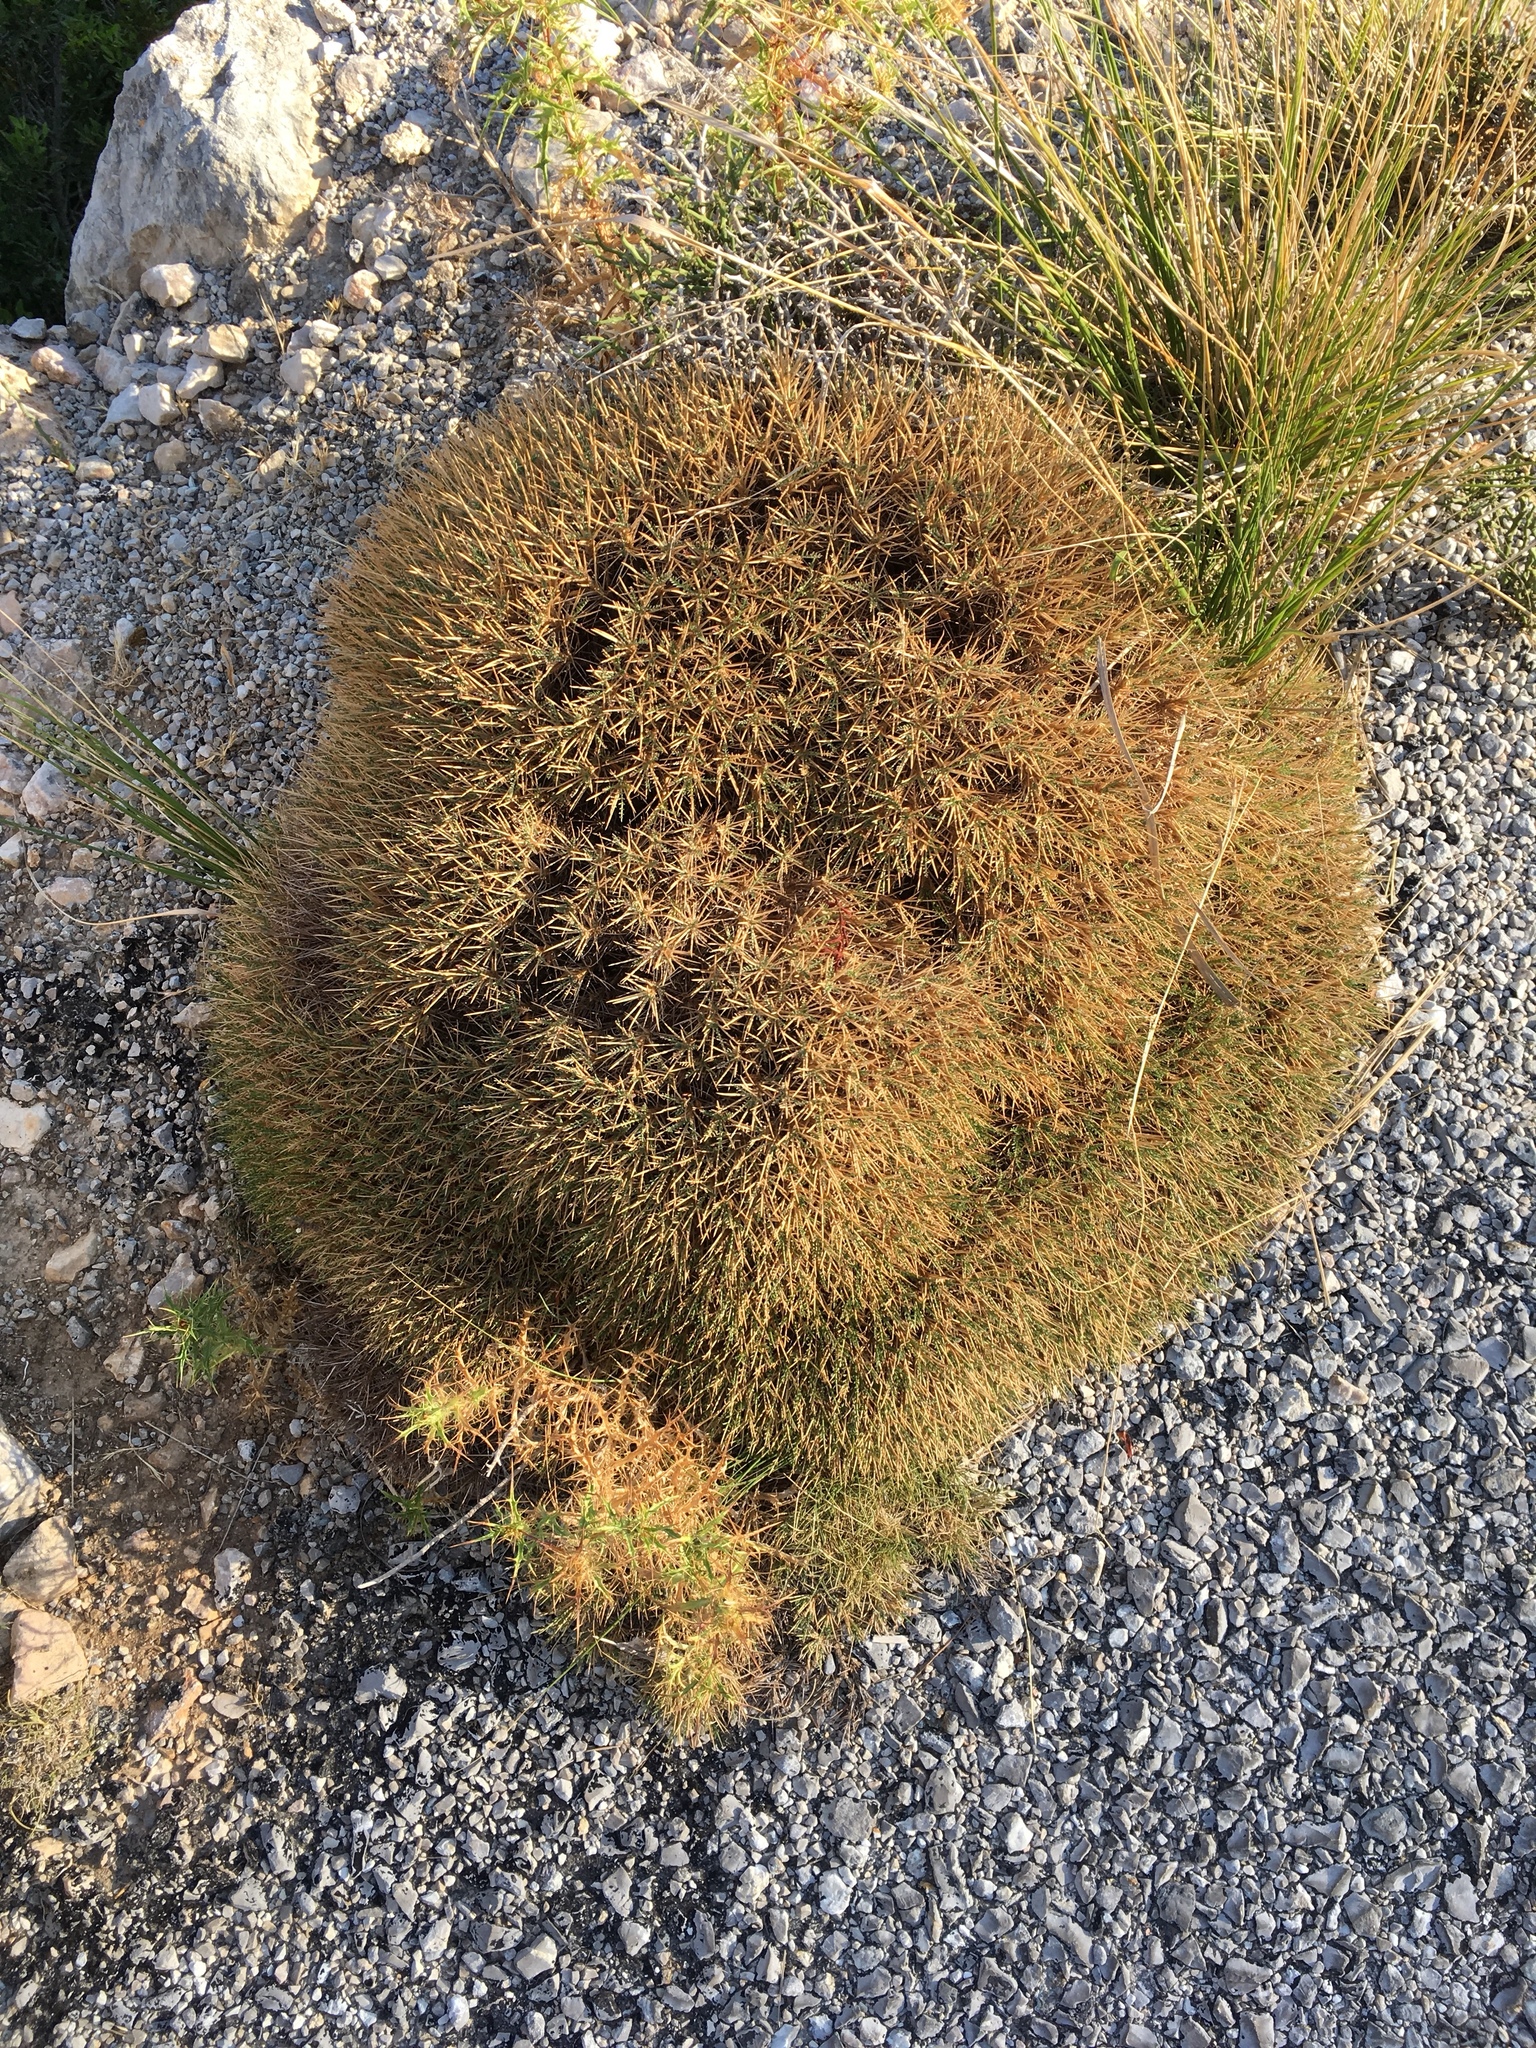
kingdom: Plantae
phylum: Tracheophyta
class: Magnoliopsida
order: Fabales
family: Fabaceae
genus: Astragalus
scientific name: Astragalus balearicus
